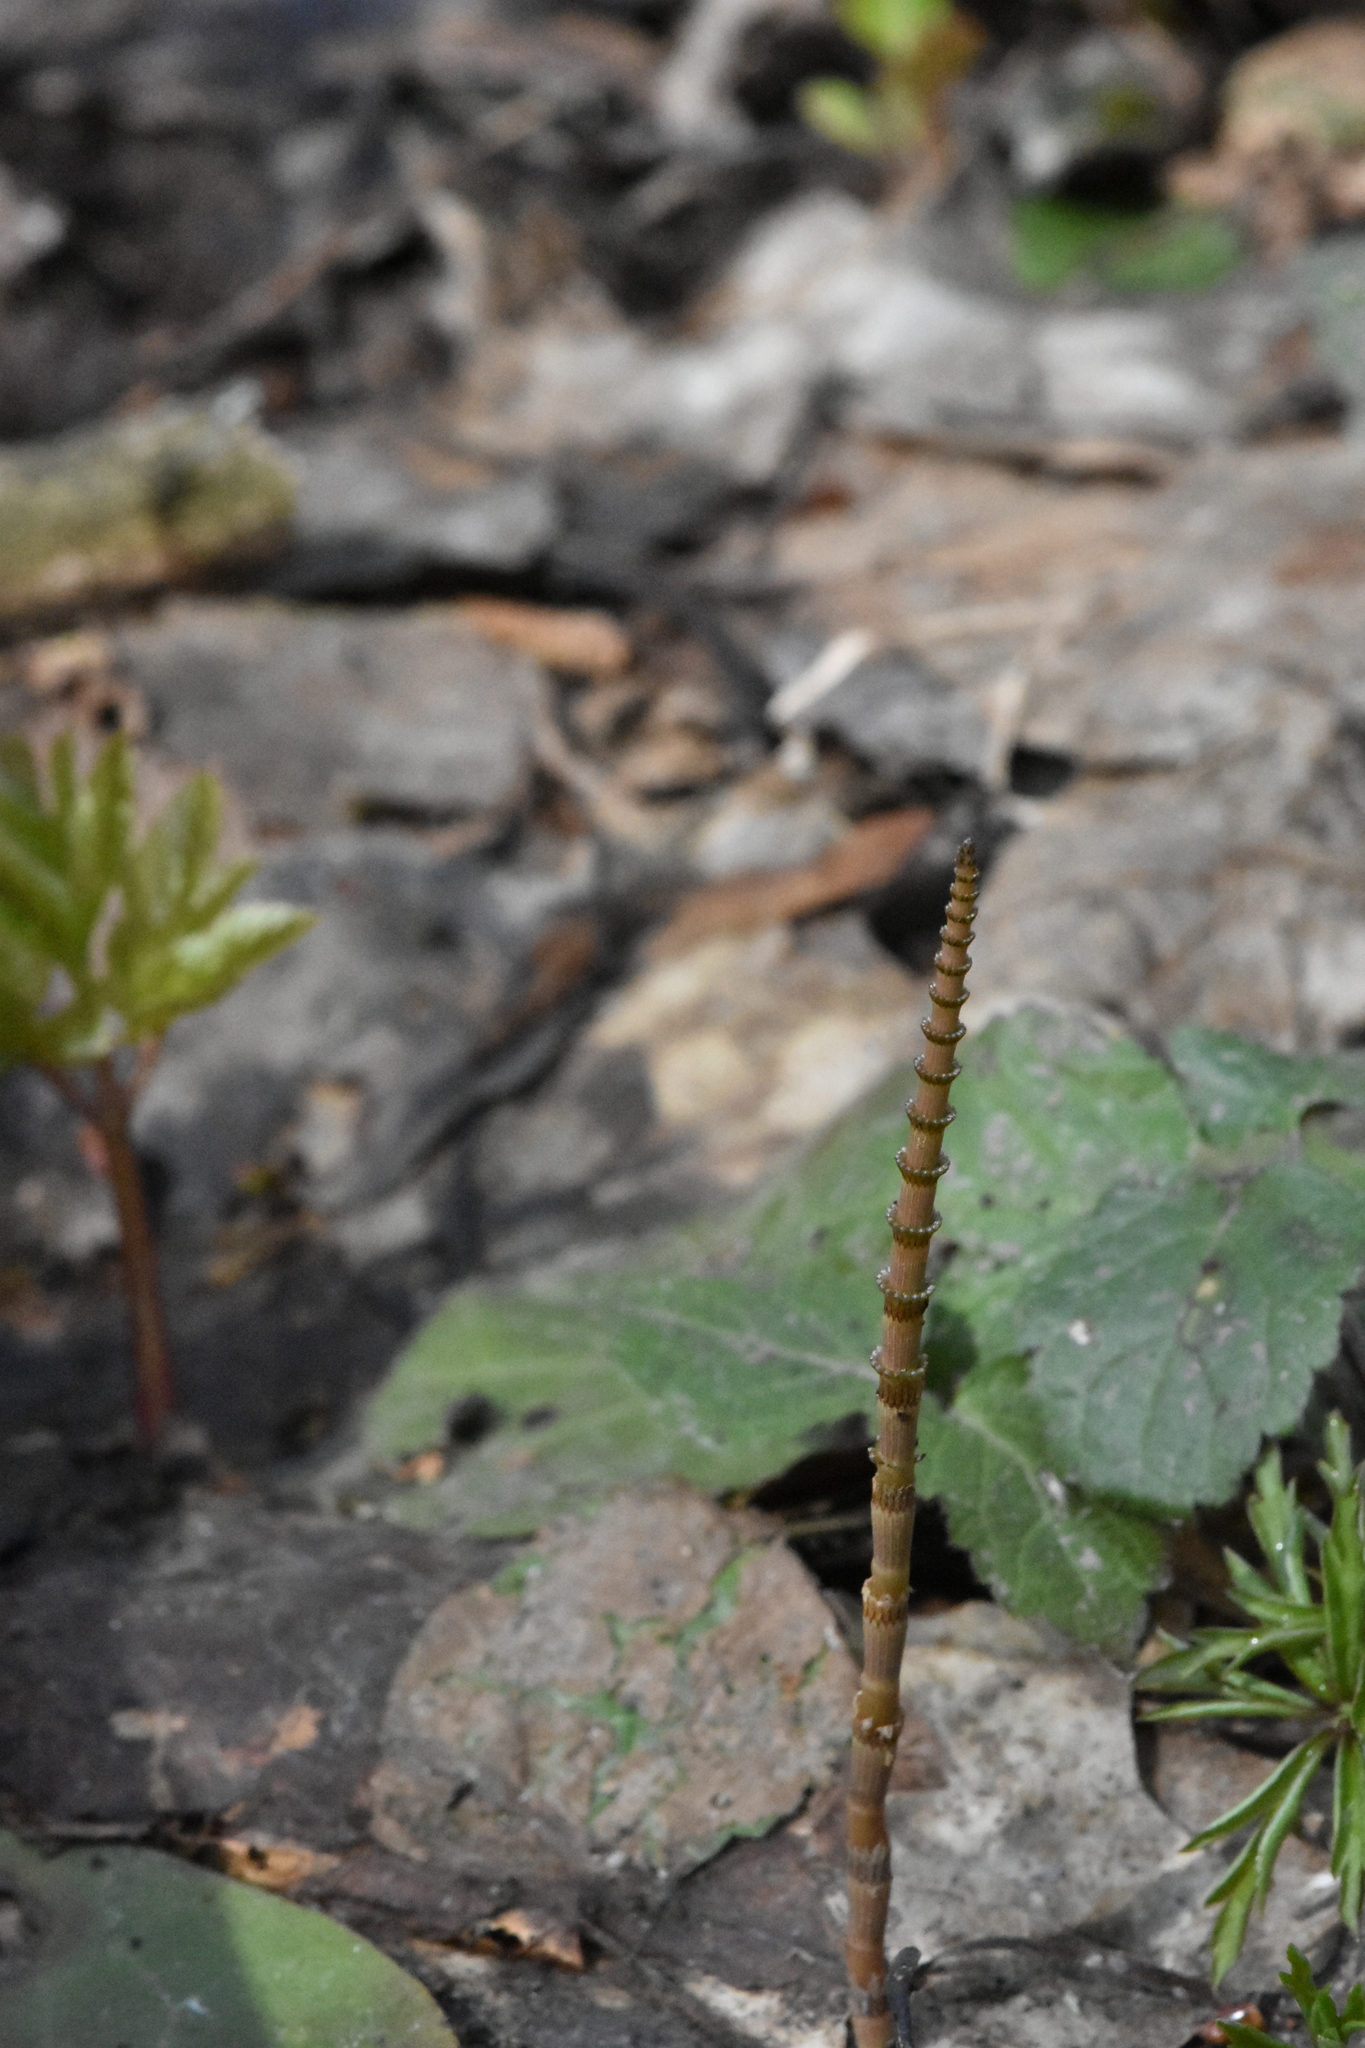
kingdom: Plantae
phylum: Tracheophyta
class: Polypodiopsida
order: Equisetales
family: Equisetaceae
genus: Equisetum
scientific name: Equisetum pratense
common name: Meadow horsetail
